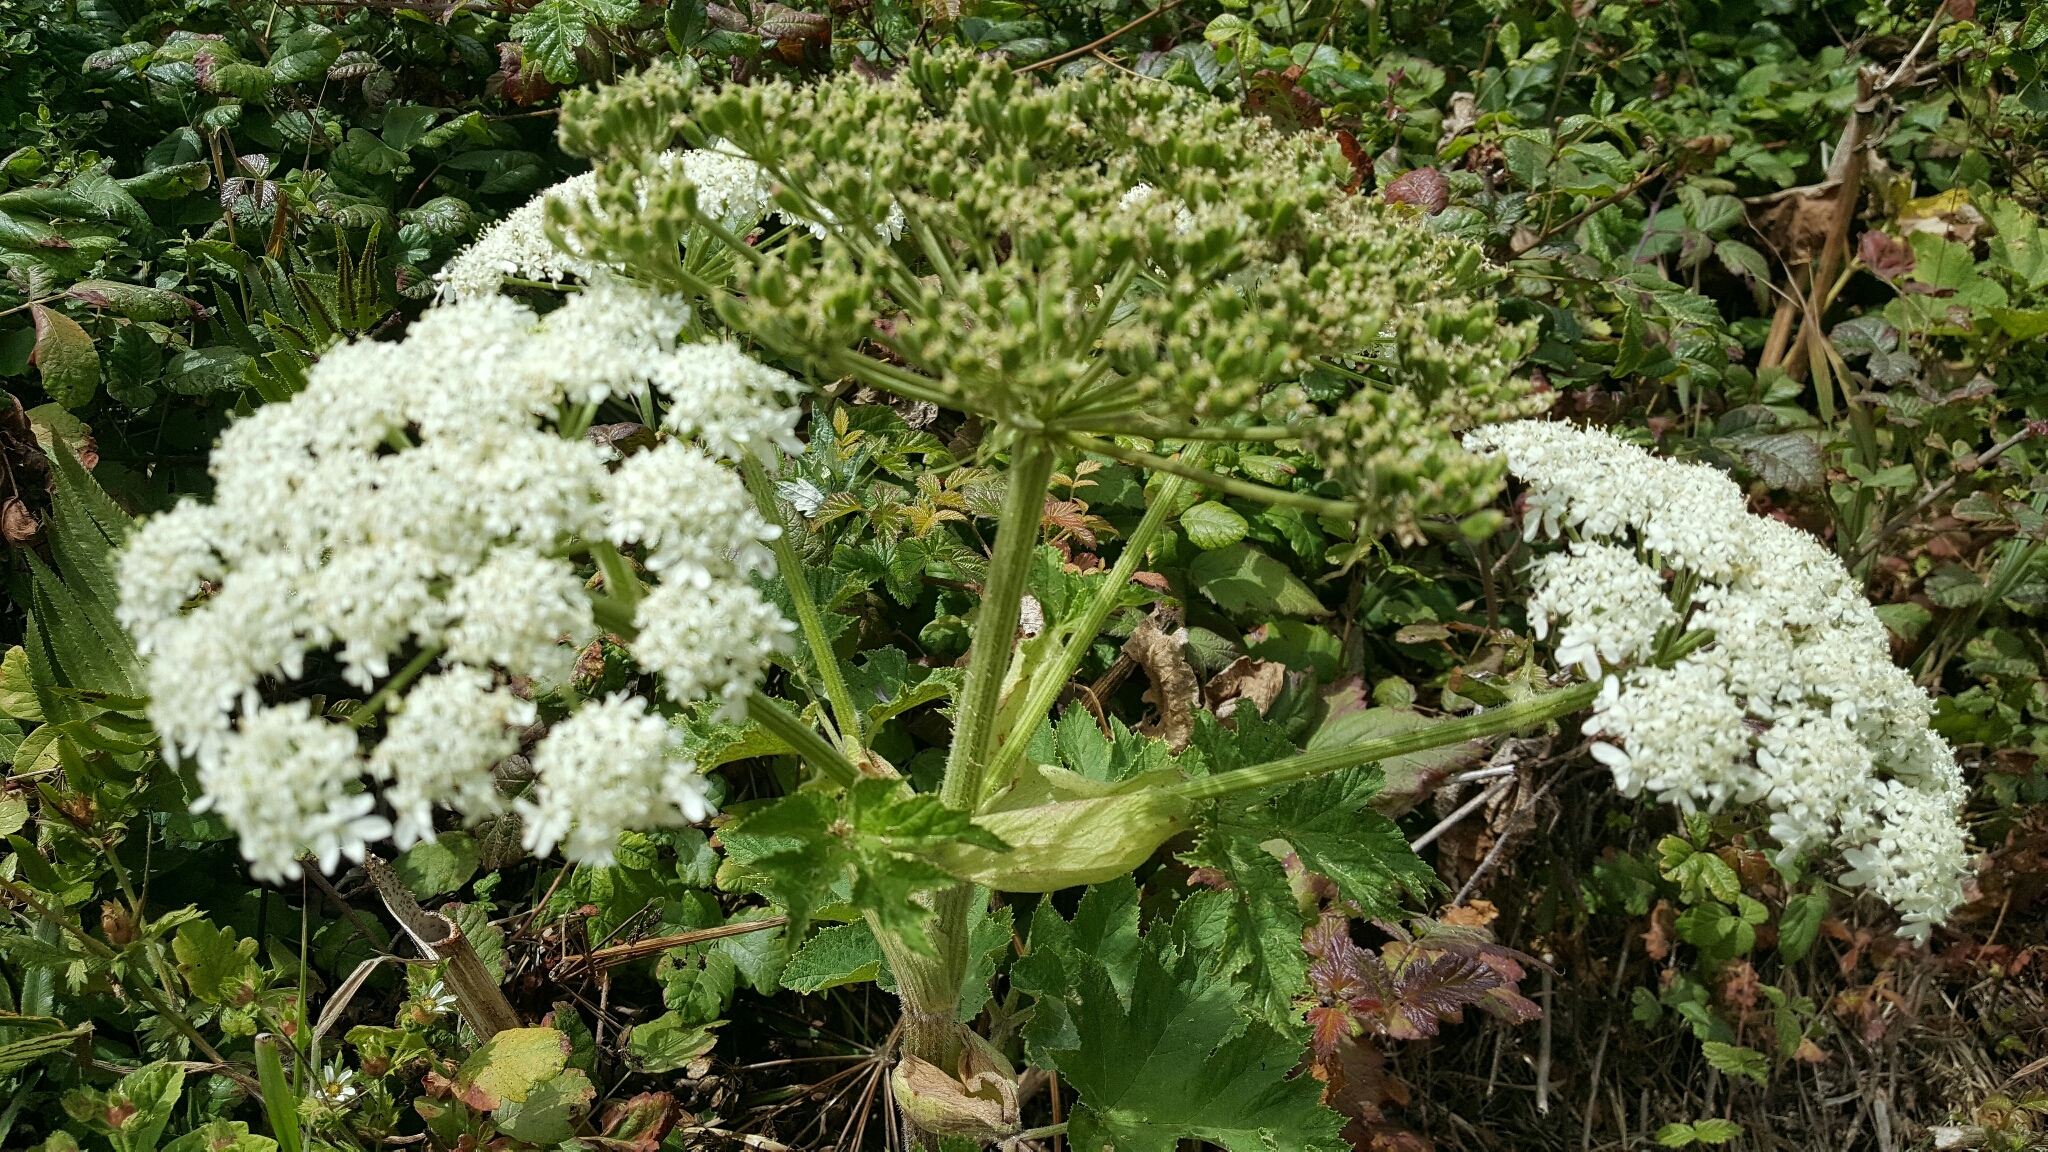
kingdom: Plantae
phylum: Tracheophyta
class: Magnoliopsida
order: Apiales
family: Apiaceae
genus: Heracleum
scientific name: Heracleum maximum
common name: American cow parsnip
